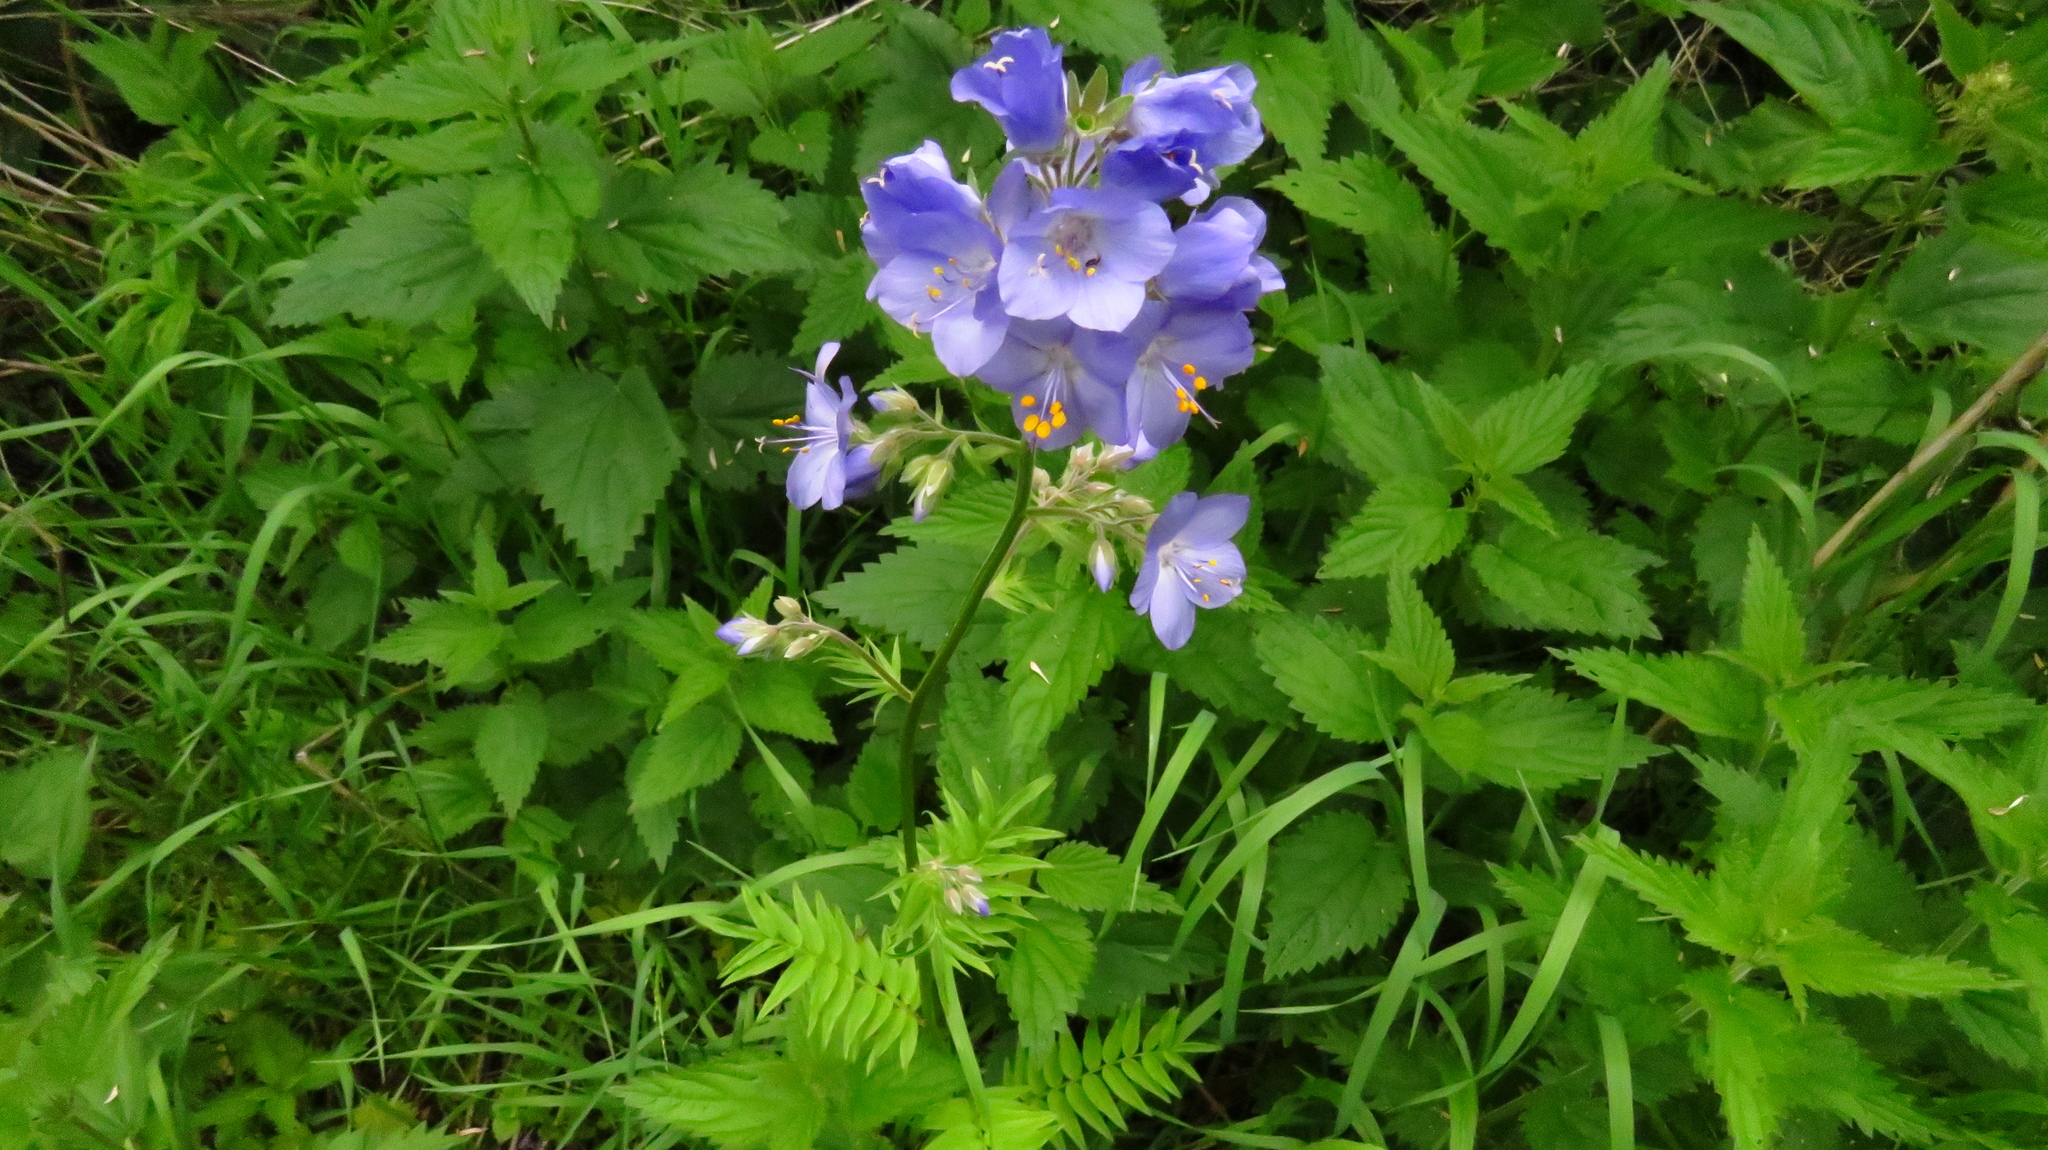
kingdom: Plantae
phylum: Tracheophyta
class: Magnoliopsida
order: Ericales
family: Polemoniaceae
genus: Polemonium
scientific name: Polemonium caeruleum
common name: Jacob's-ladder
